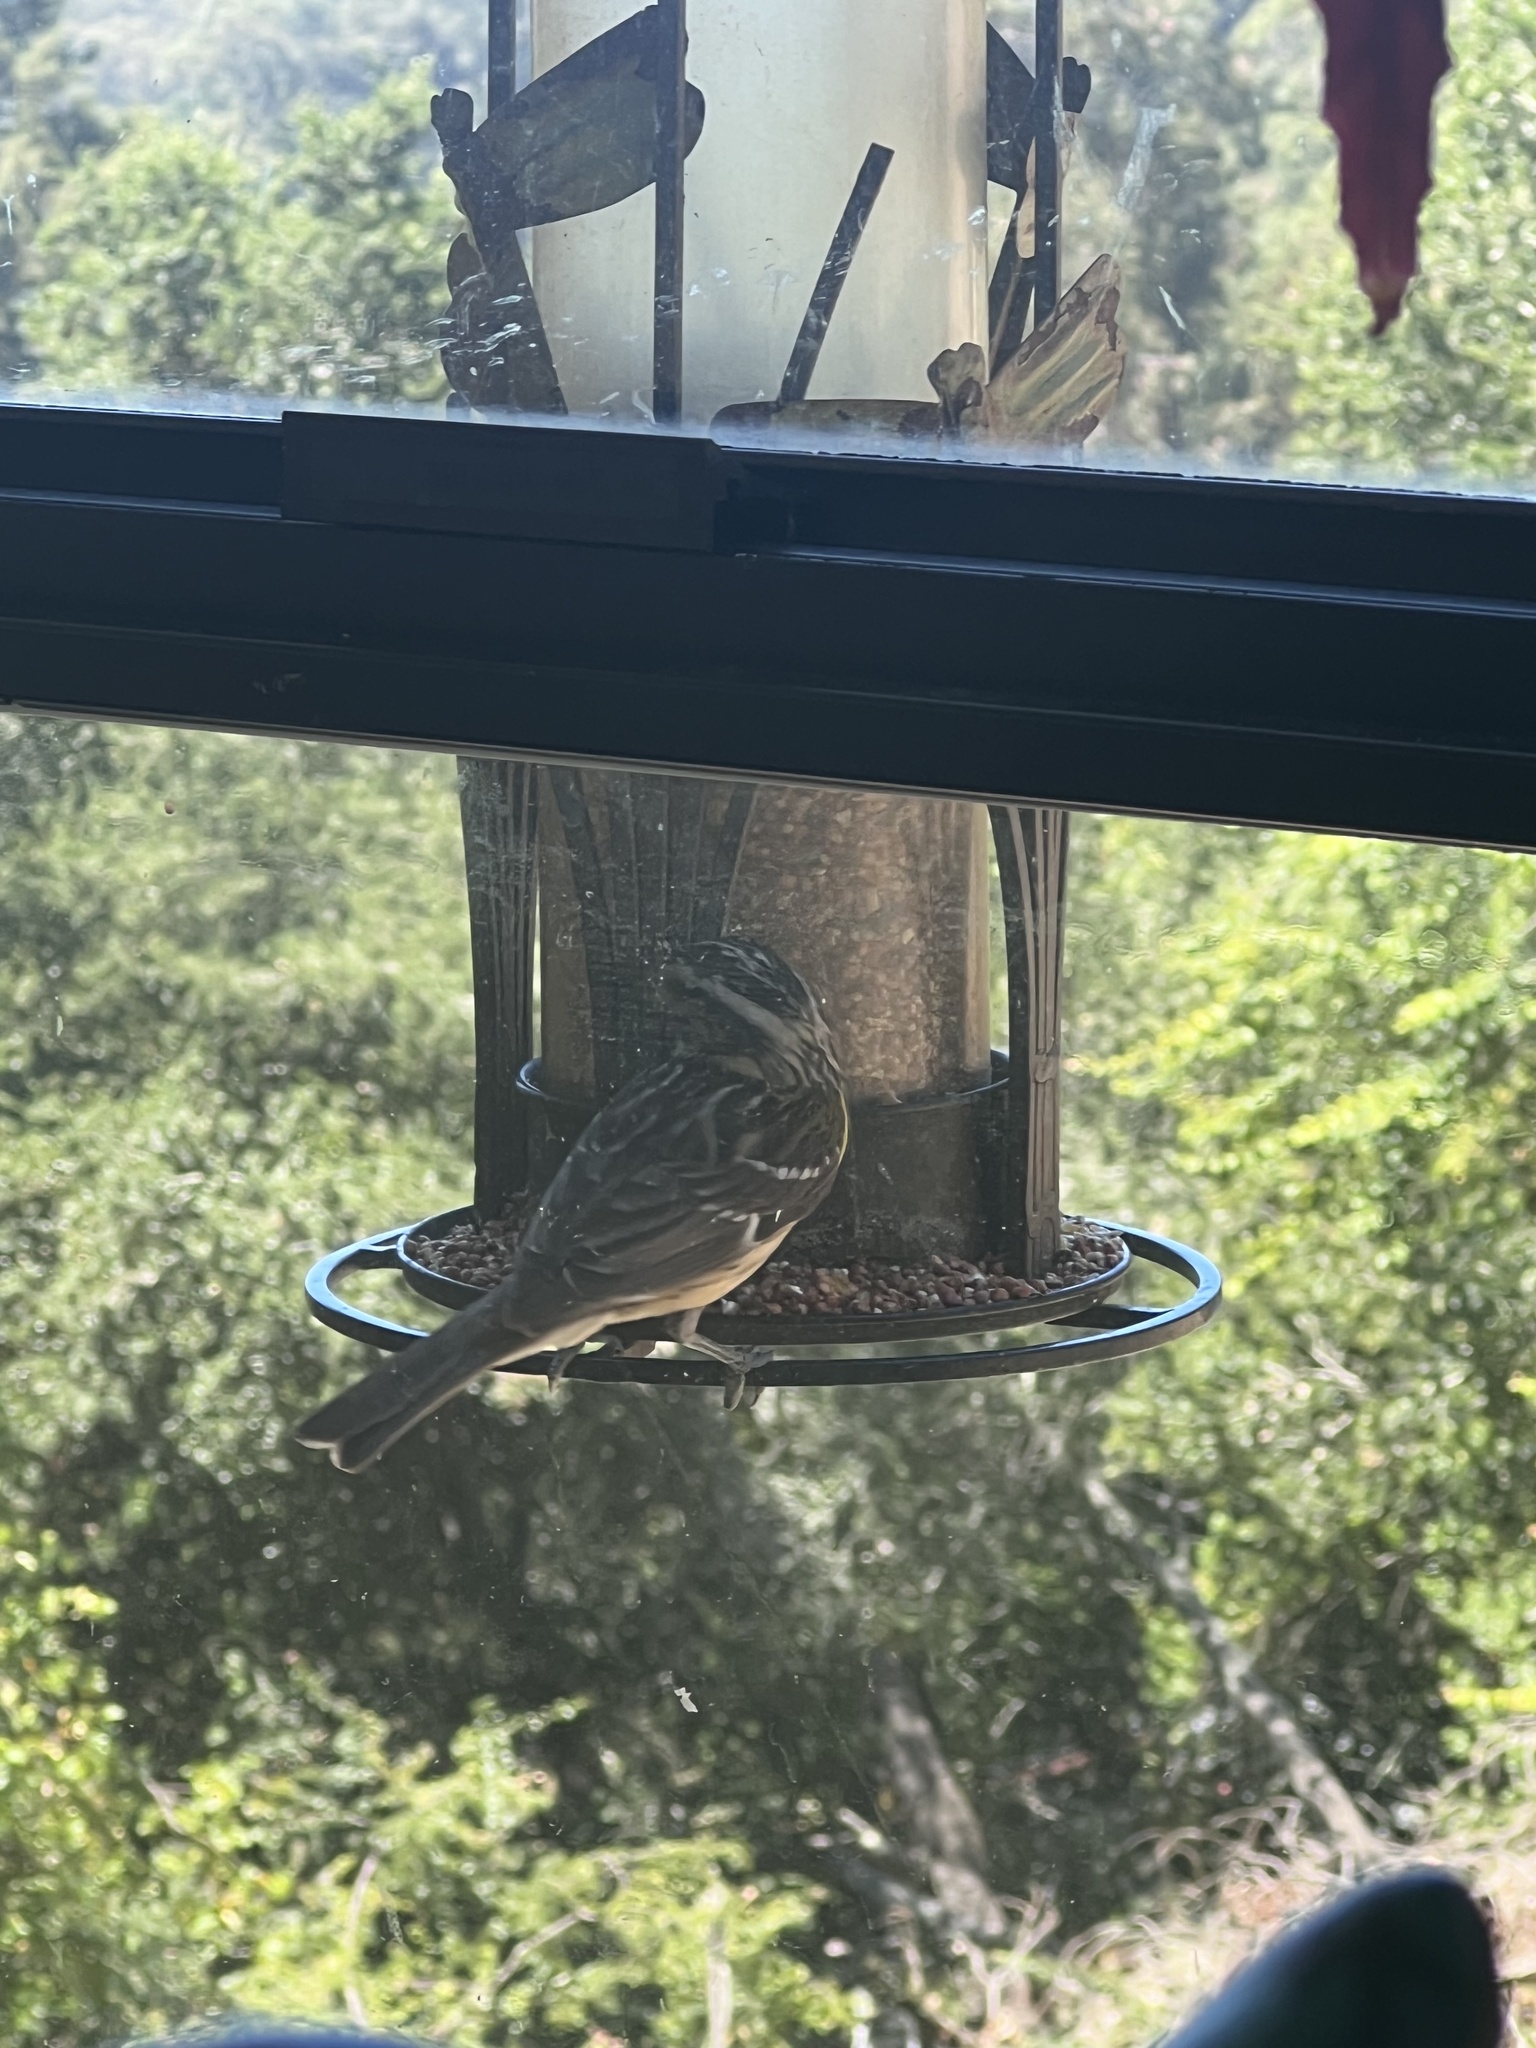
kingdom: Animalia
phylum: Chordata
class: Aves
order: Passeriformes
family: Cardinalidae
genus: Pheucticus
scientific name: Pheucticus melanocephalus
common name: Black-headed grosbeak
